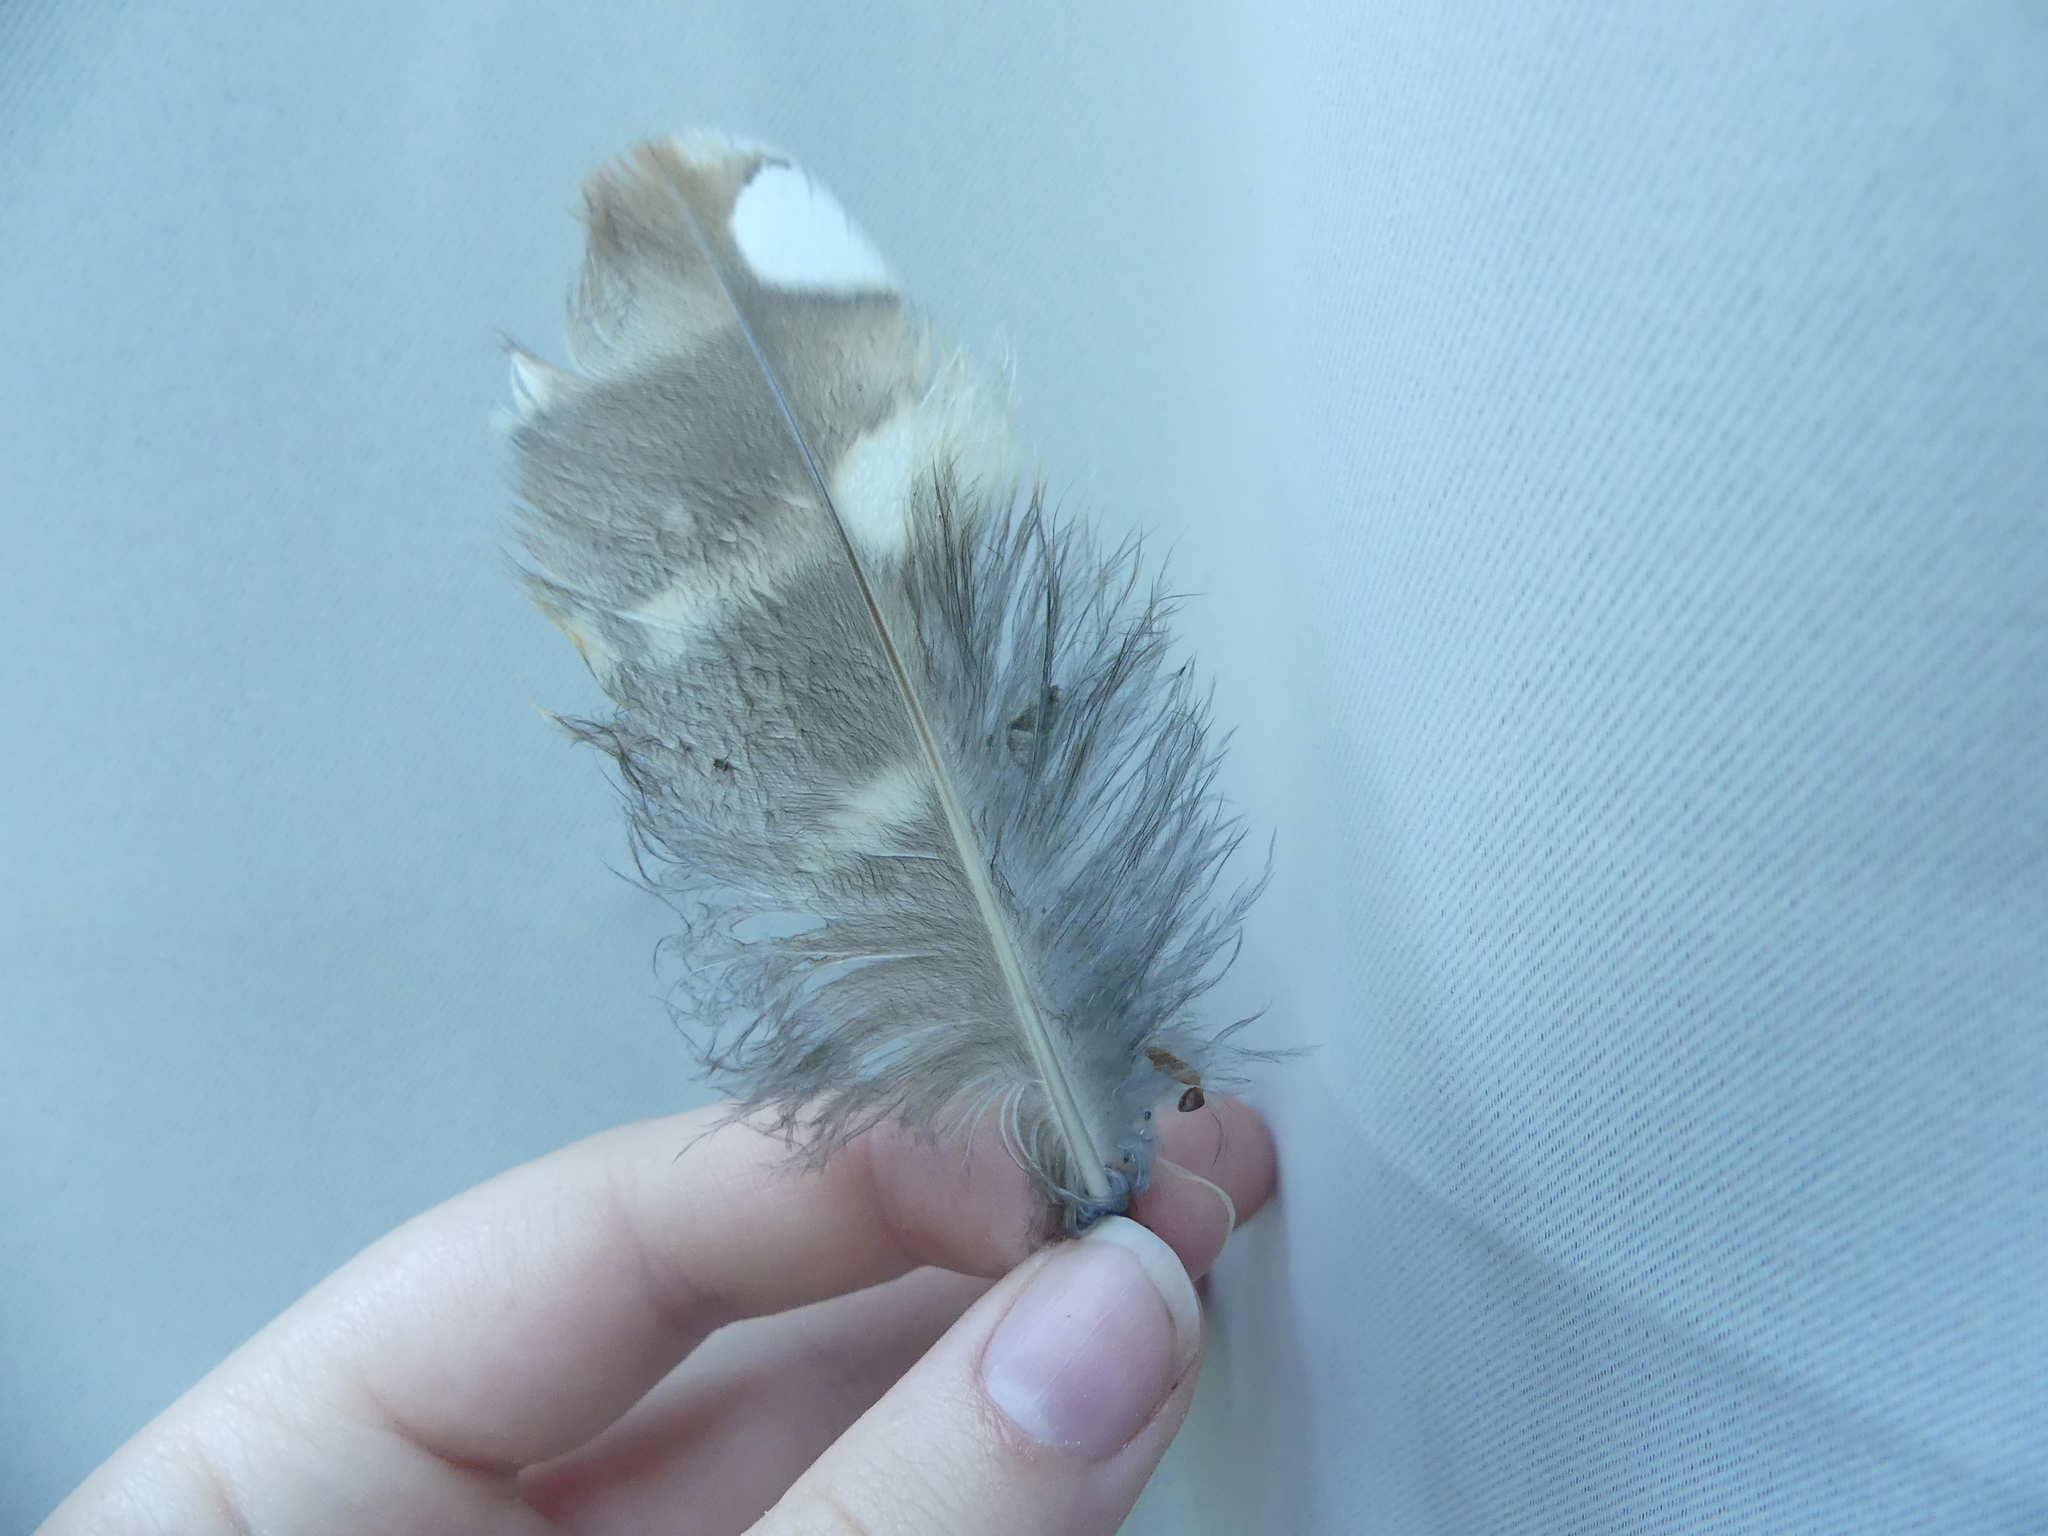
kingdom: Animalia
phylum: Chordata
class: Aves
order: Strigiformes
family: Strigidae
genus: Strix
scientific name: Strix varia
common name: Barred owl
